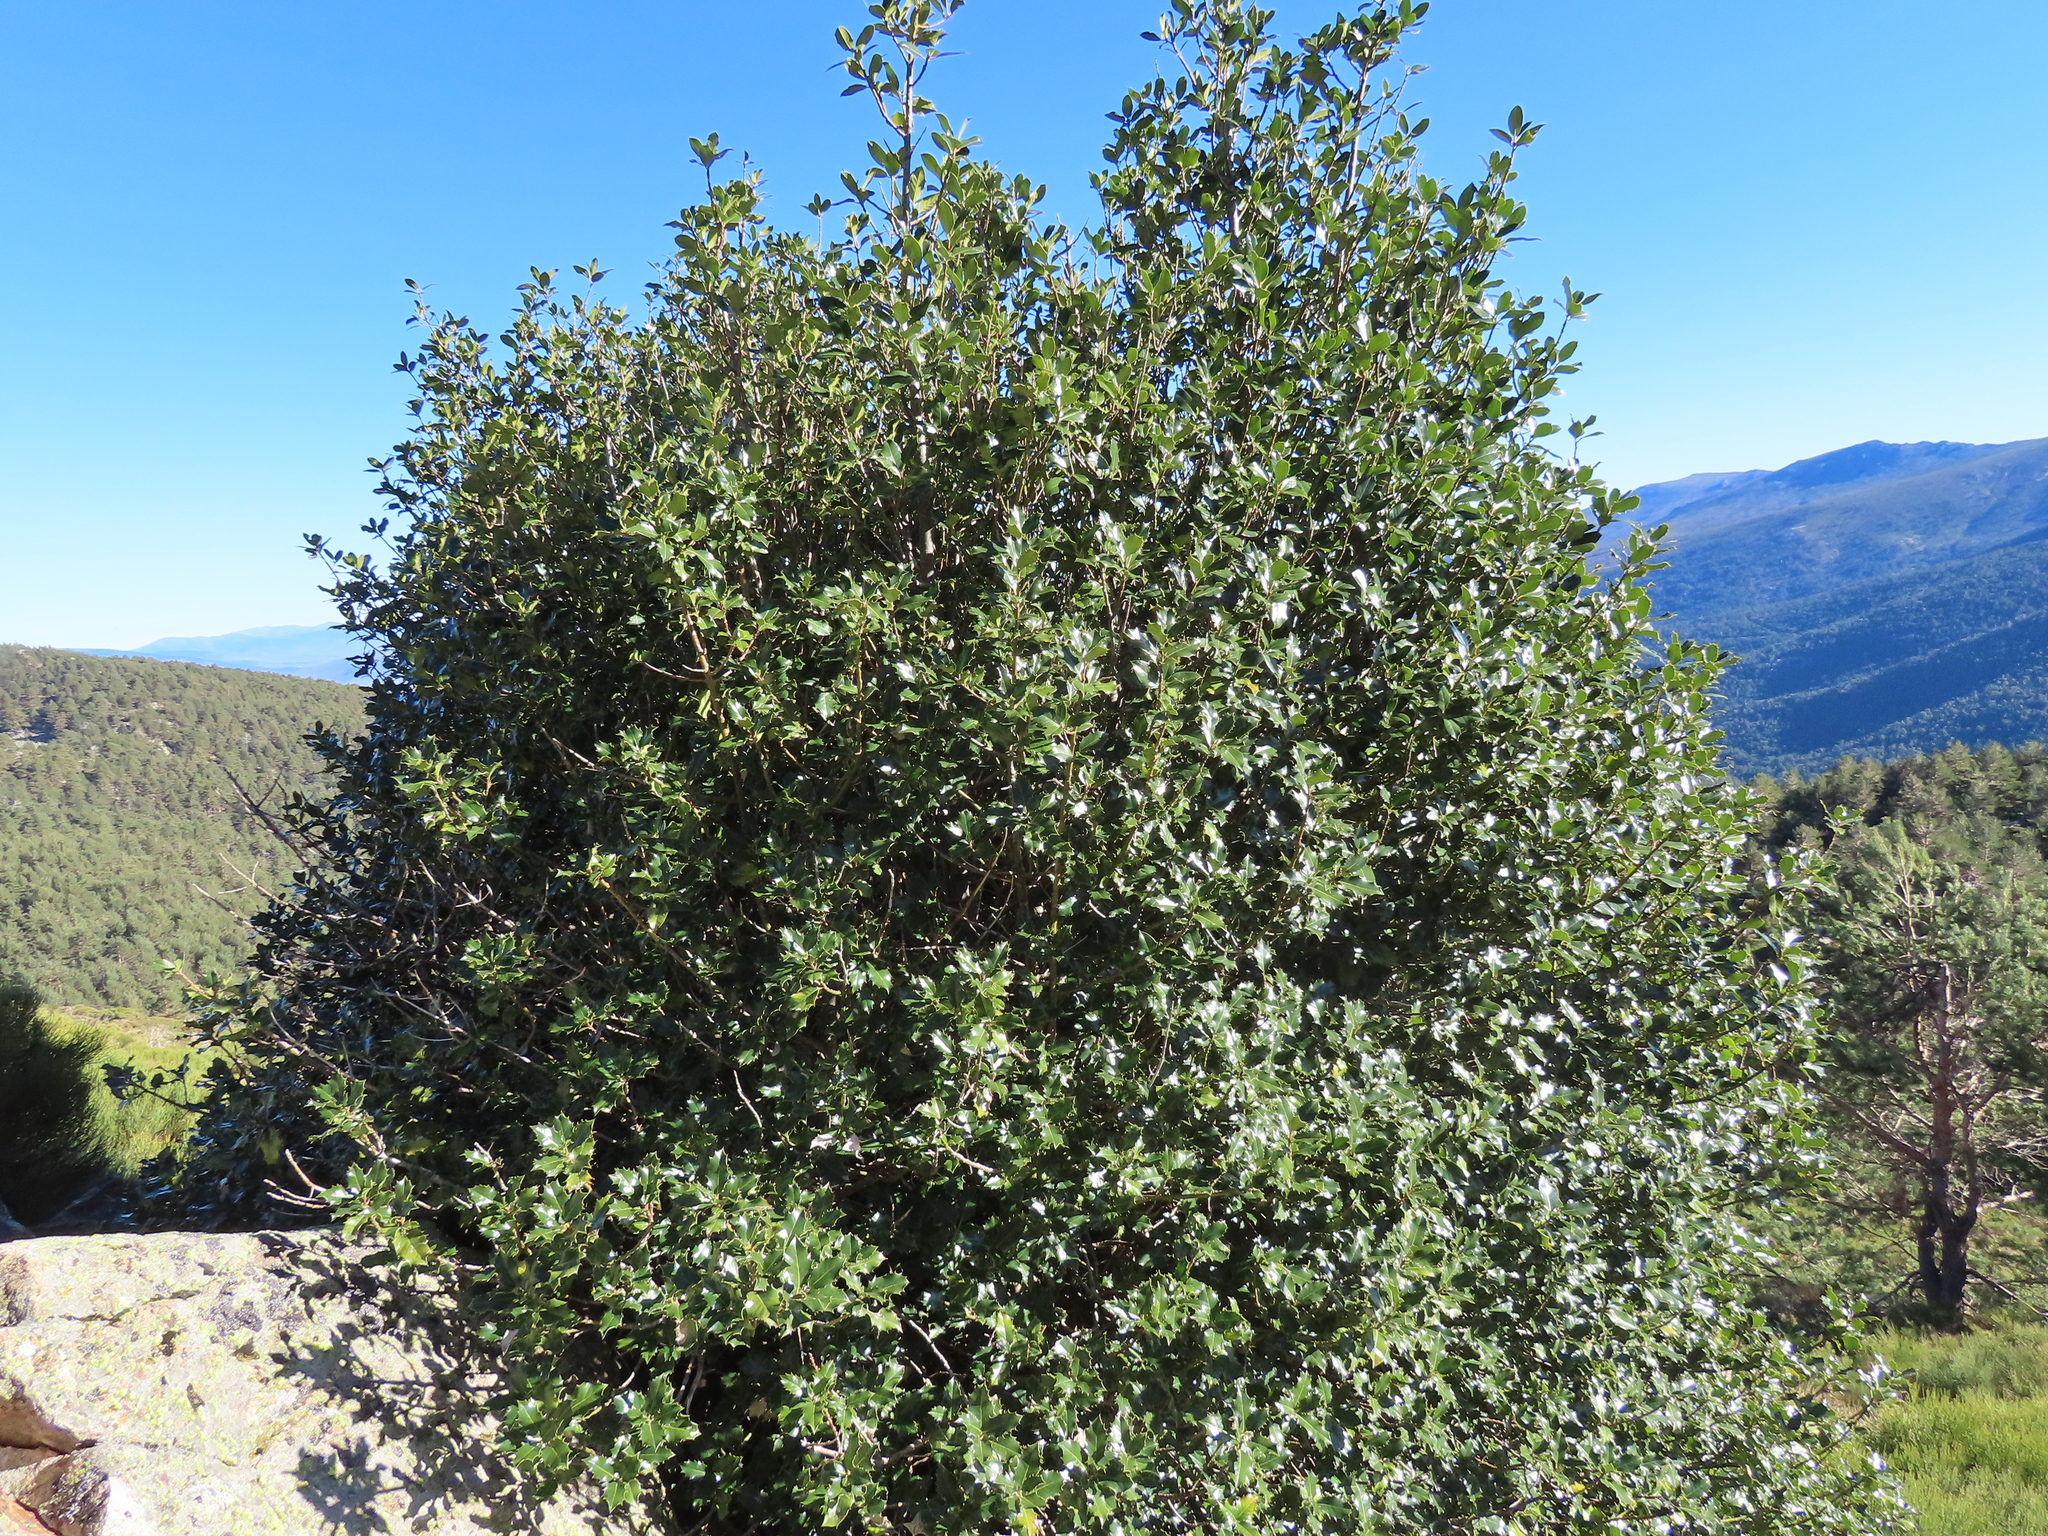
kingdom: Plantae
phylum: Tracheophyta
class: Magnoliopsida
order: Aquifoliales
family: Aquifoliaceae
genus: Ilex
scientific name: Ilex aquifolium
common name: English holly
